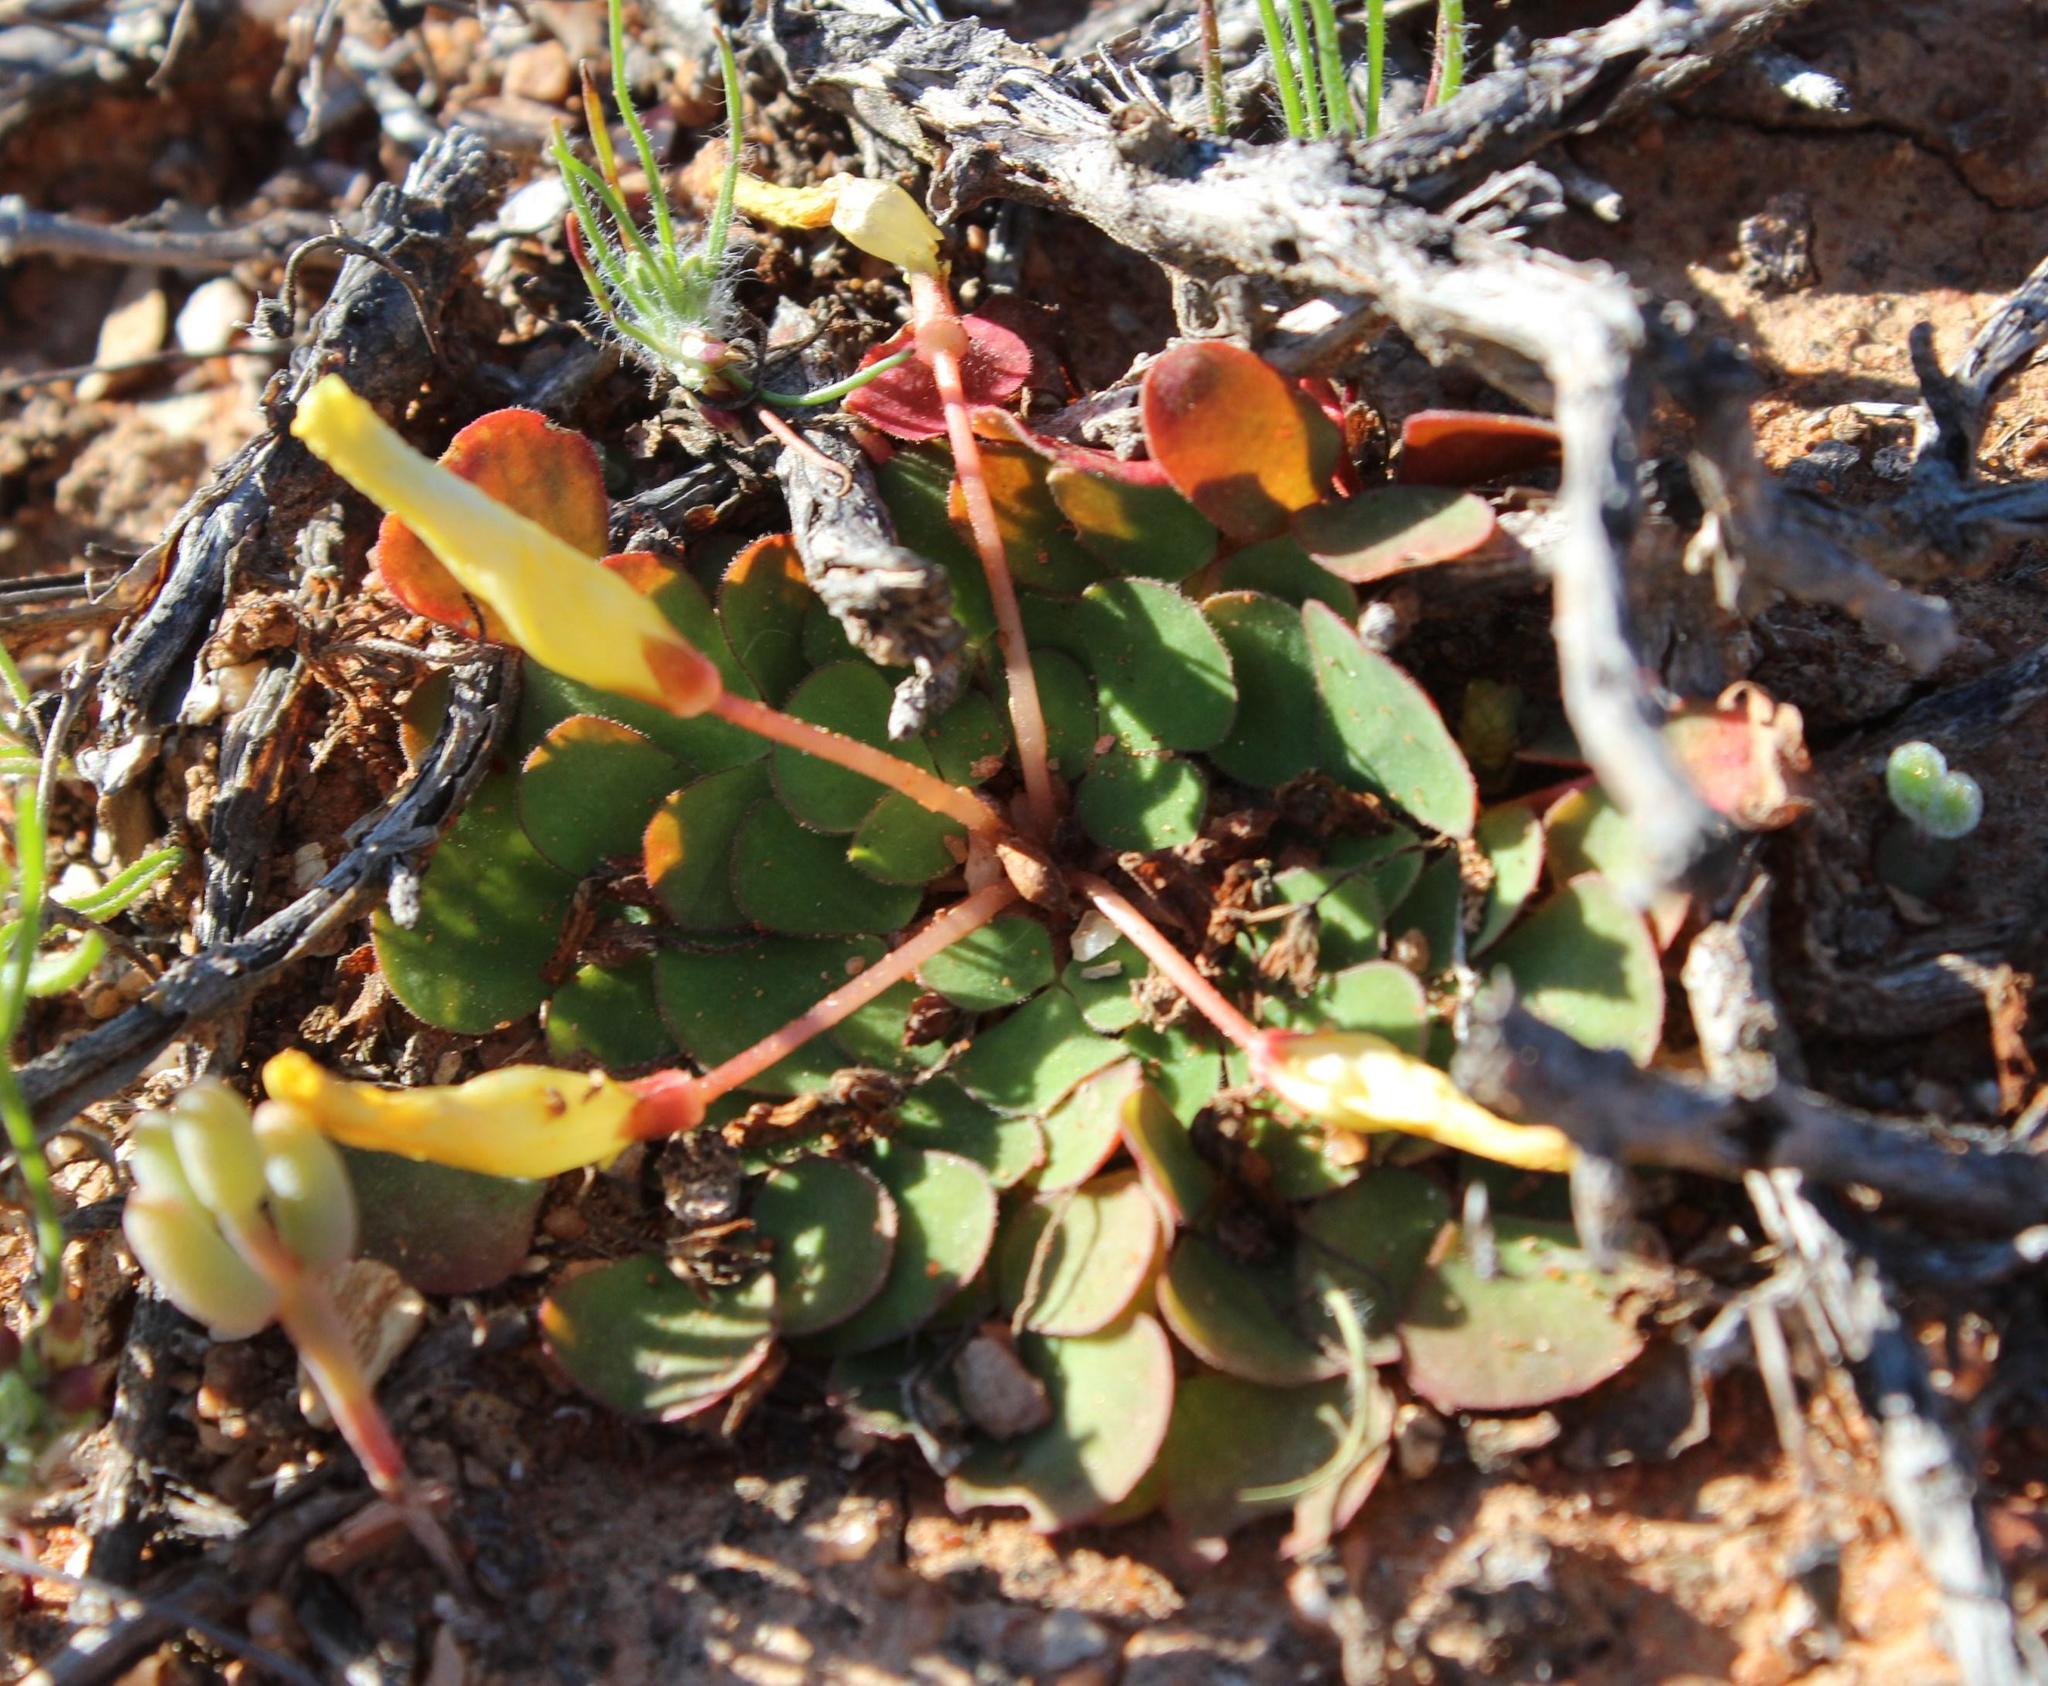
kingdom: Plantae
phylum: Tracheophyta
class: Magnoliopsida
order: Oxalidales
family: Oxalidaceae
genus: Oxalis
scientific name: Oxalis purpurea
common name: Purple woodsorrel
